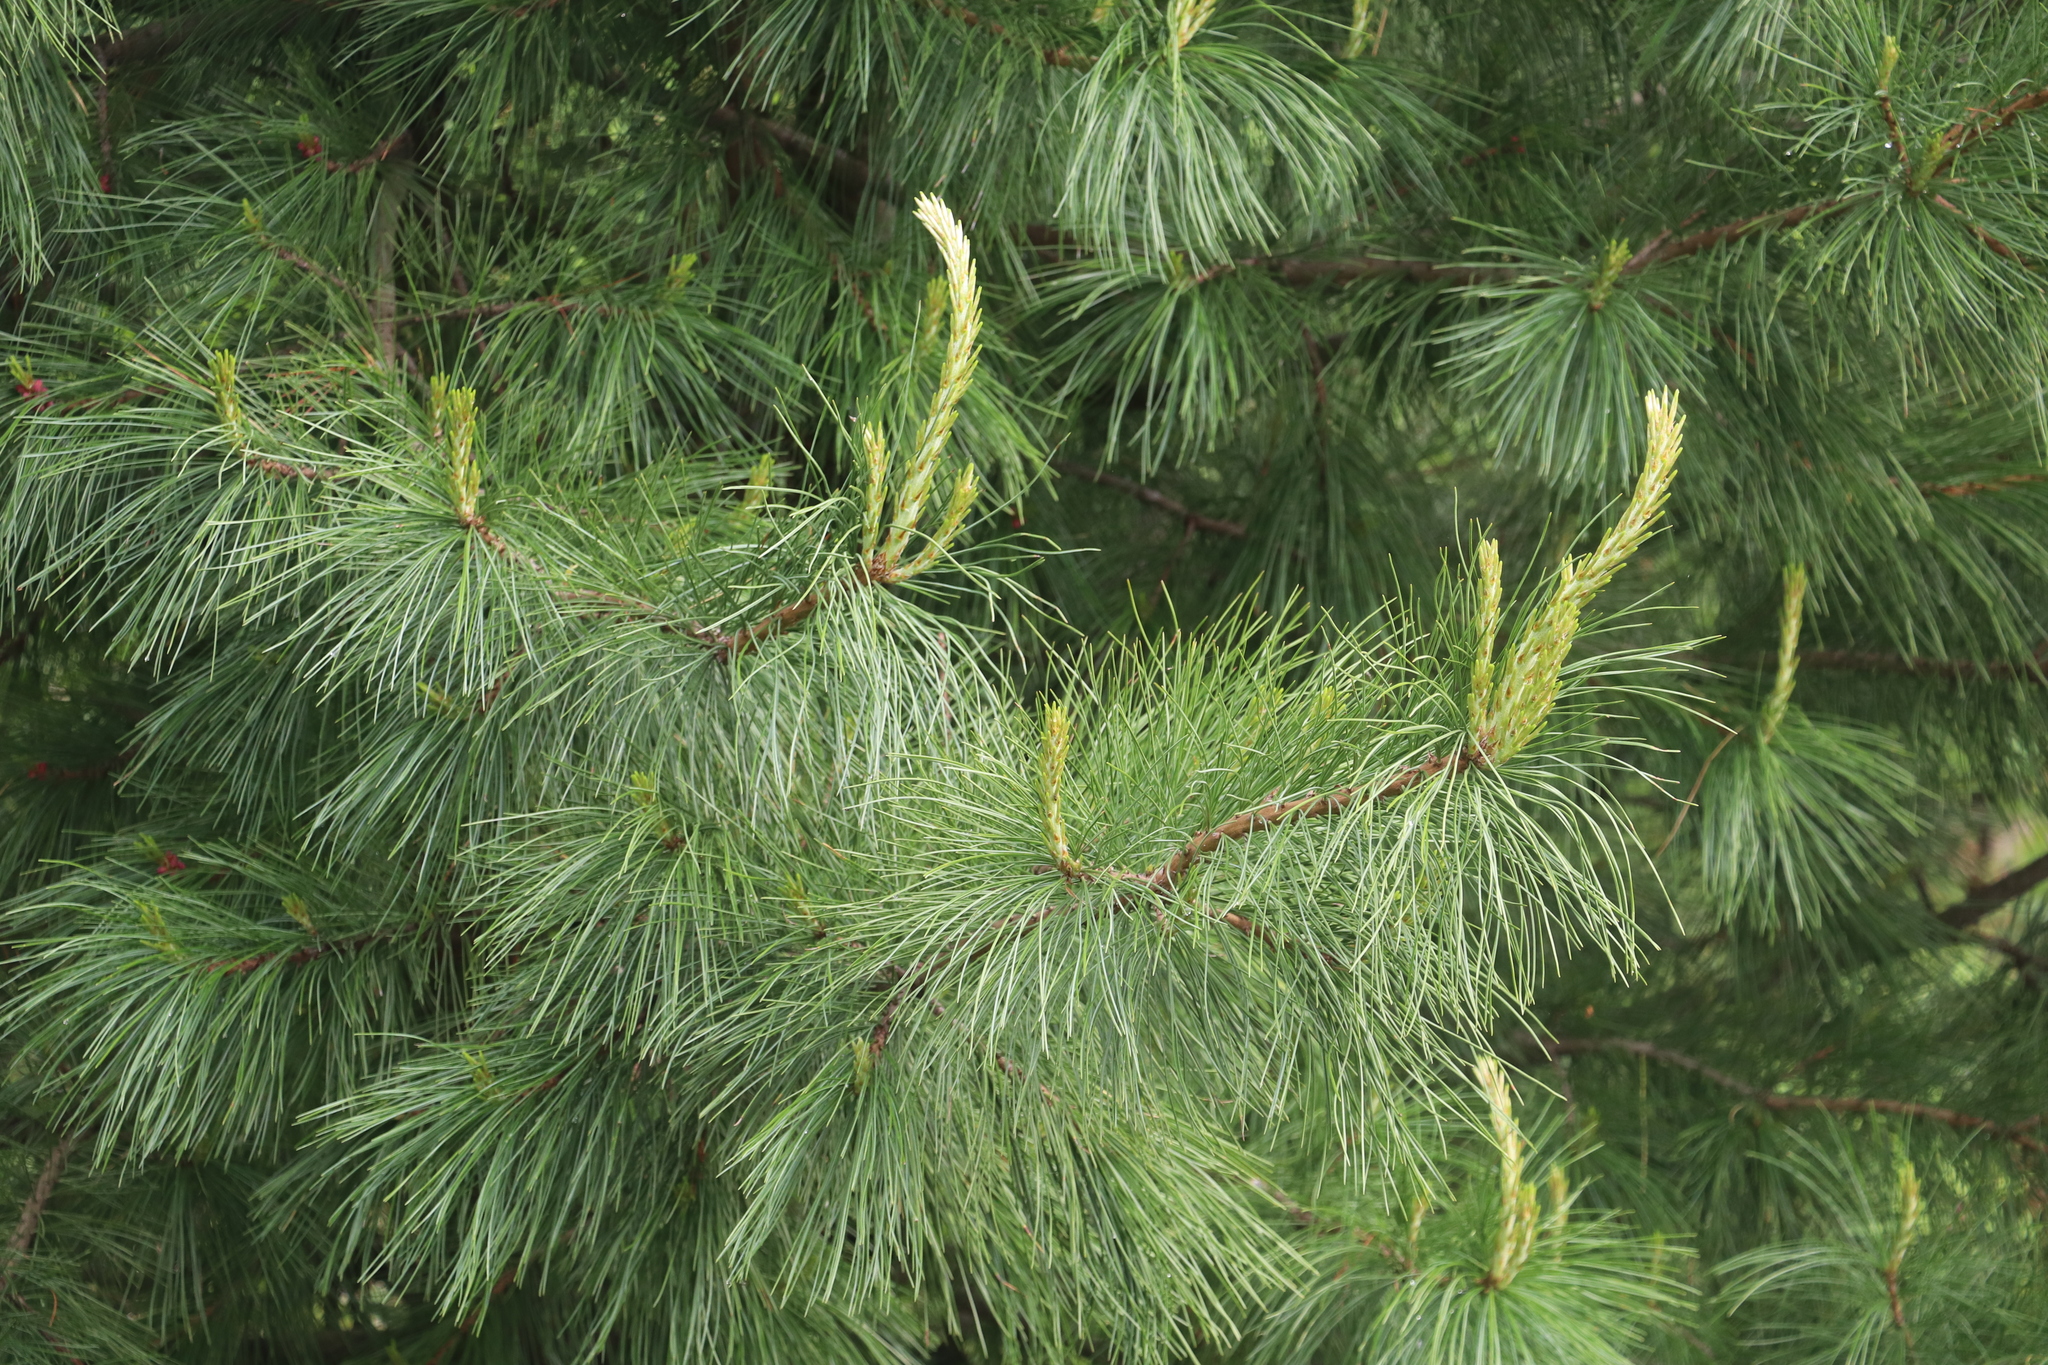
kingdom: Plantae
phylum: Tracheophyta
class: Pinopsida
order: Pinales
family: Pinaceae
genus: Pinus
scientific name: Pinus sibirica
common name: Siberian pine
